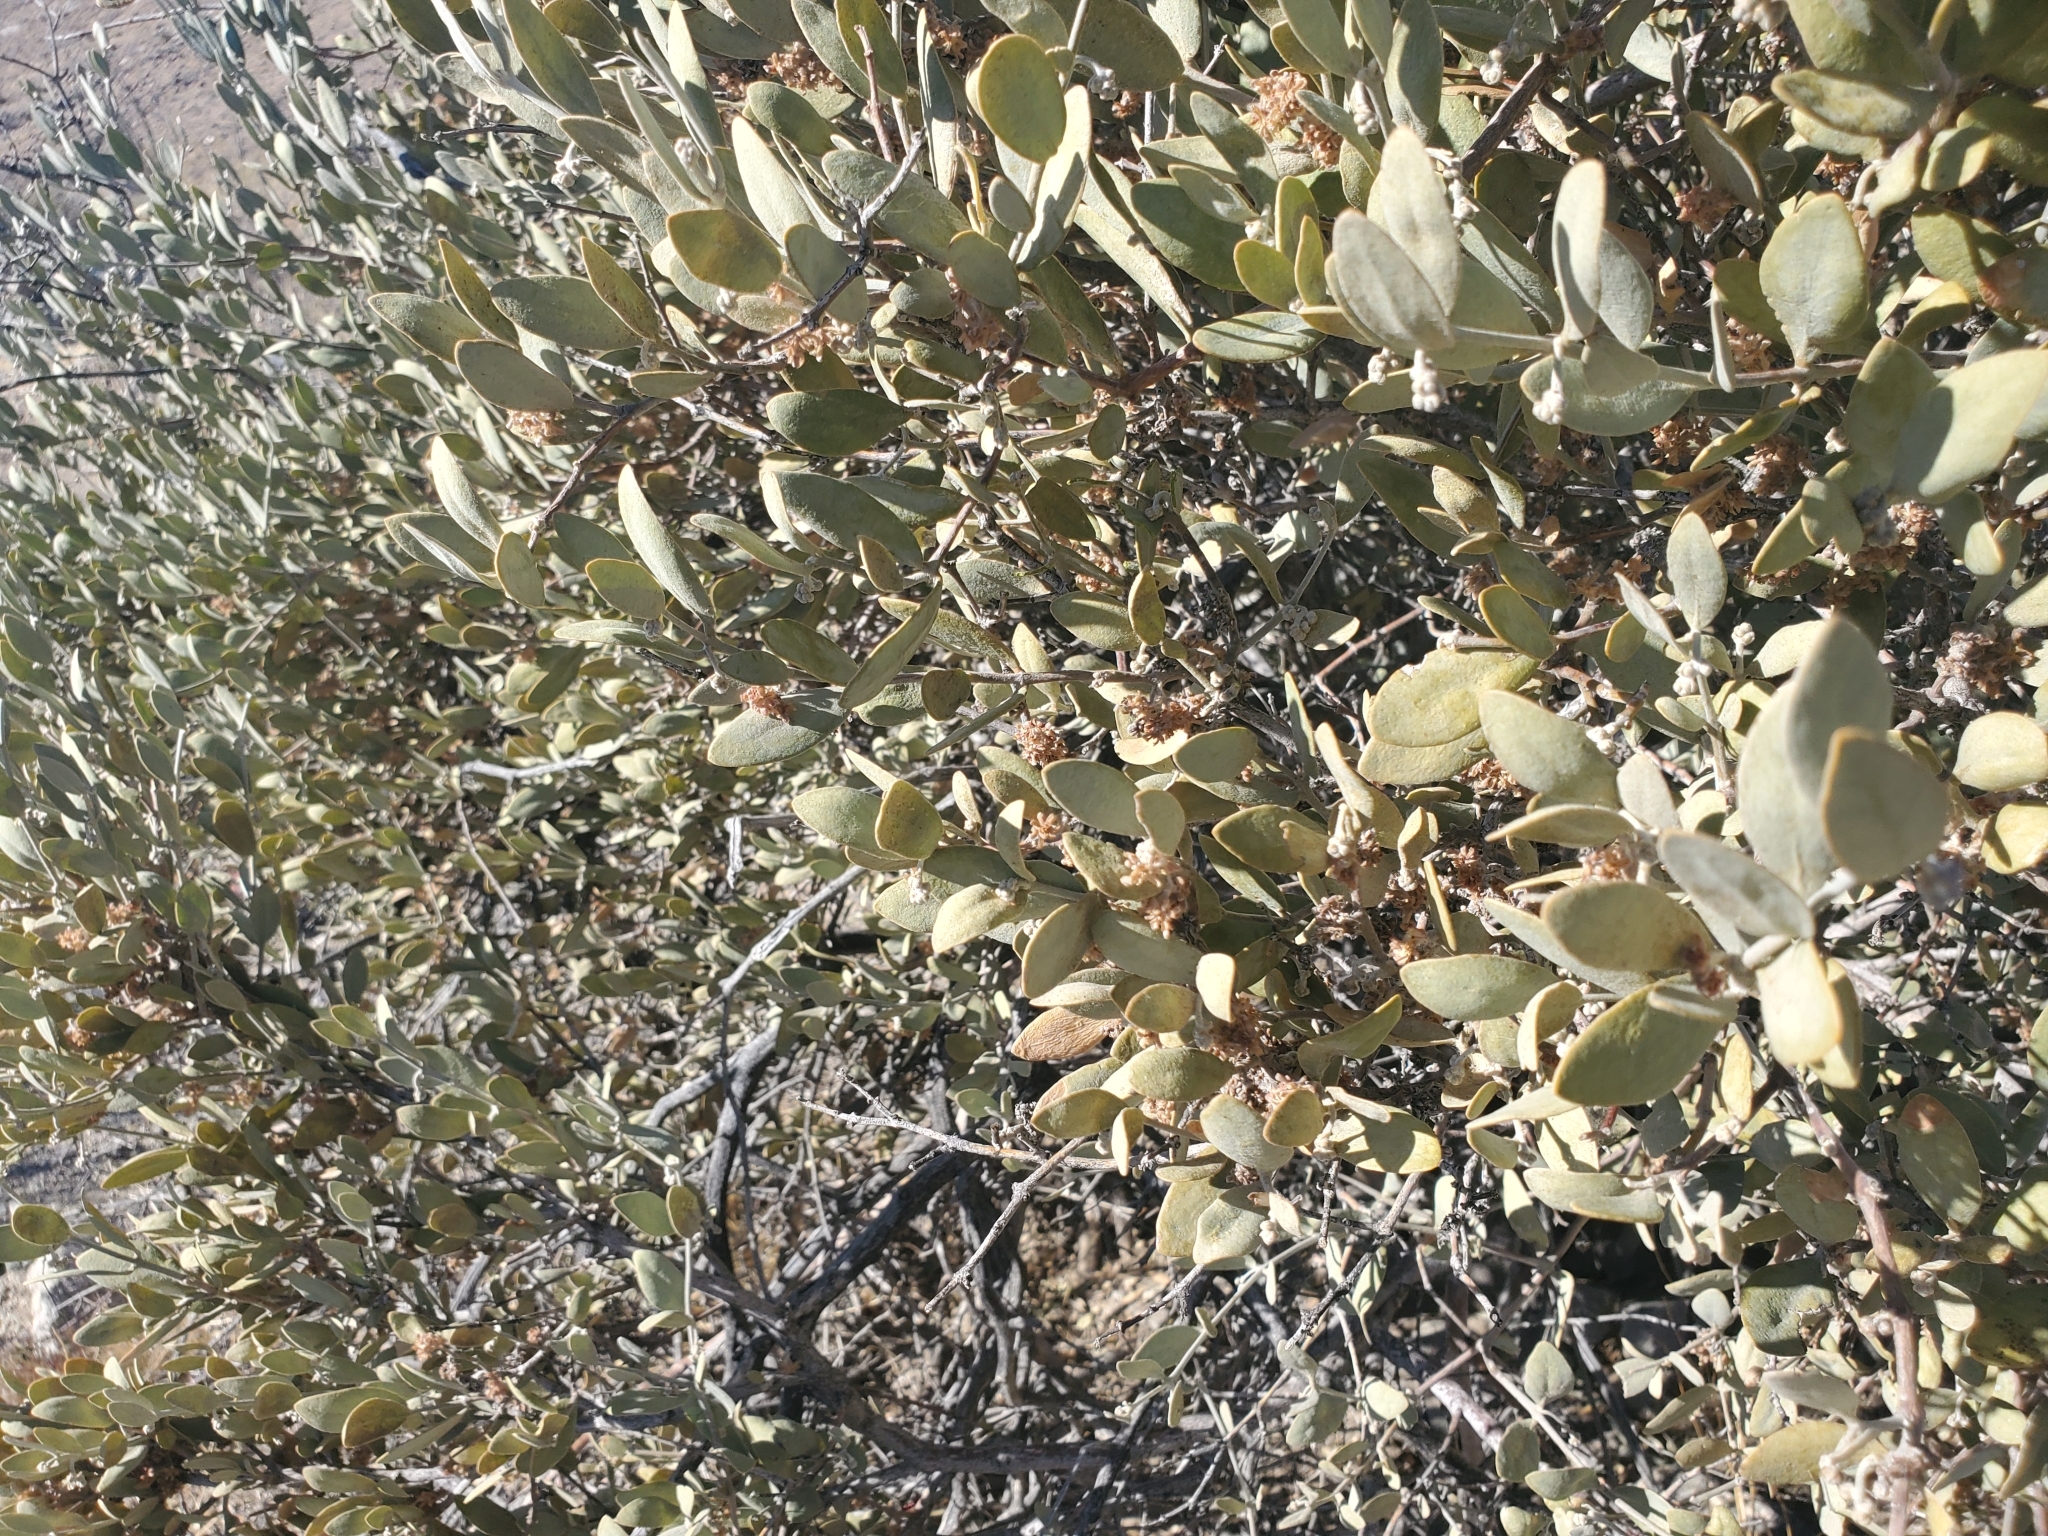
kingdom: Plantae
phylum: Tracheophyta
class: Magnoliopsida
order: Caryophyllales
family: Simmondsiaceae
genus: Simmondsia
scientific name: Simmondsia chinensis
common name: Jojoba
